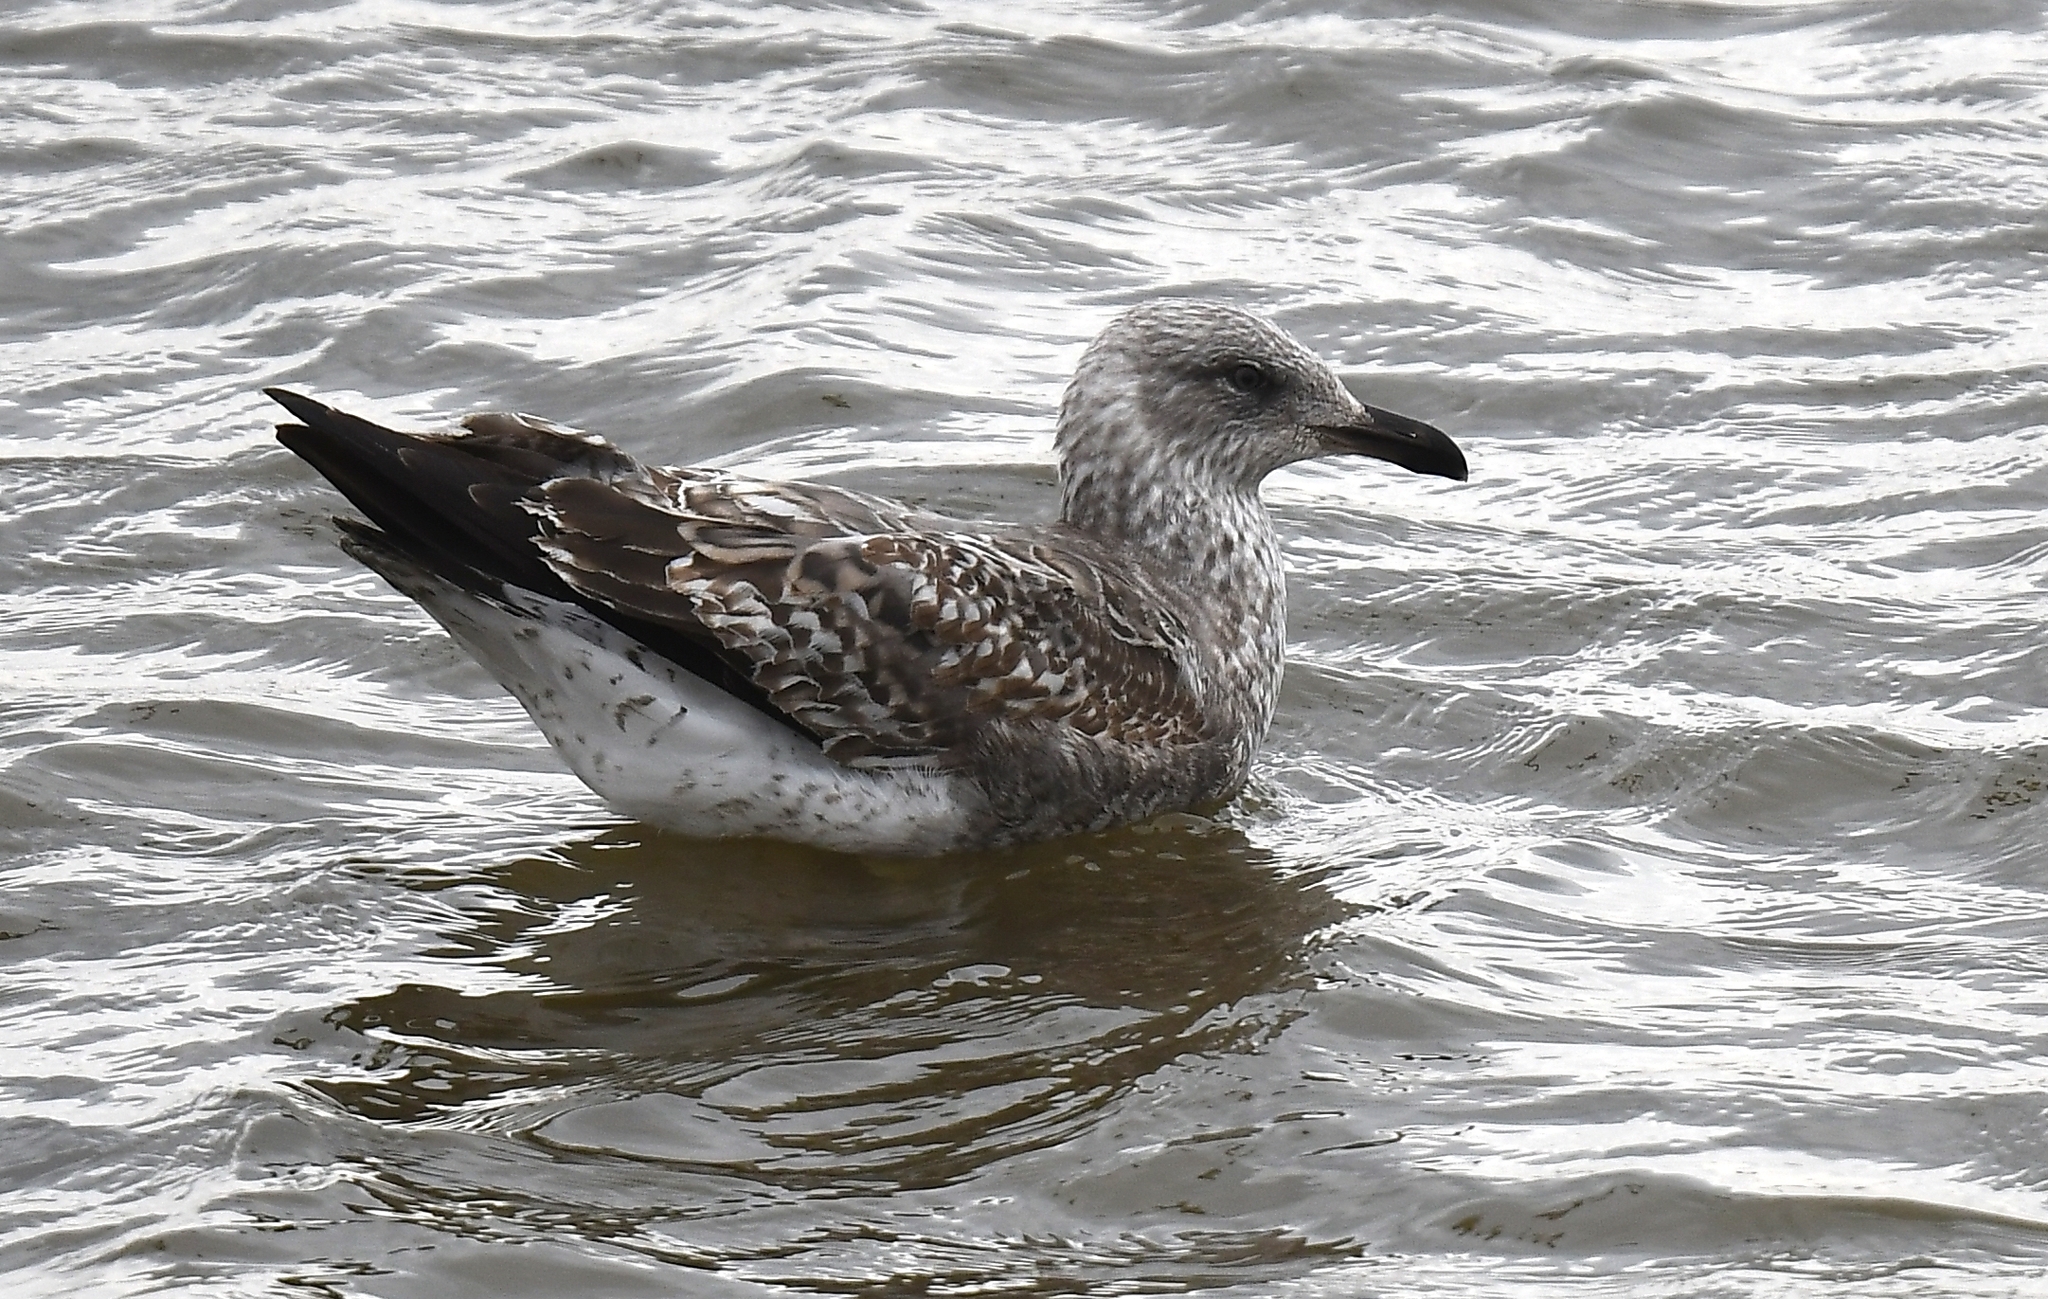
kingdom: Animalia
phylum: Chordata
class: Aves
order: Charadriiformes
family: Laridae
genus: Larus
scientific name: Larus fuscus
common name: Lesser black-backed gull
